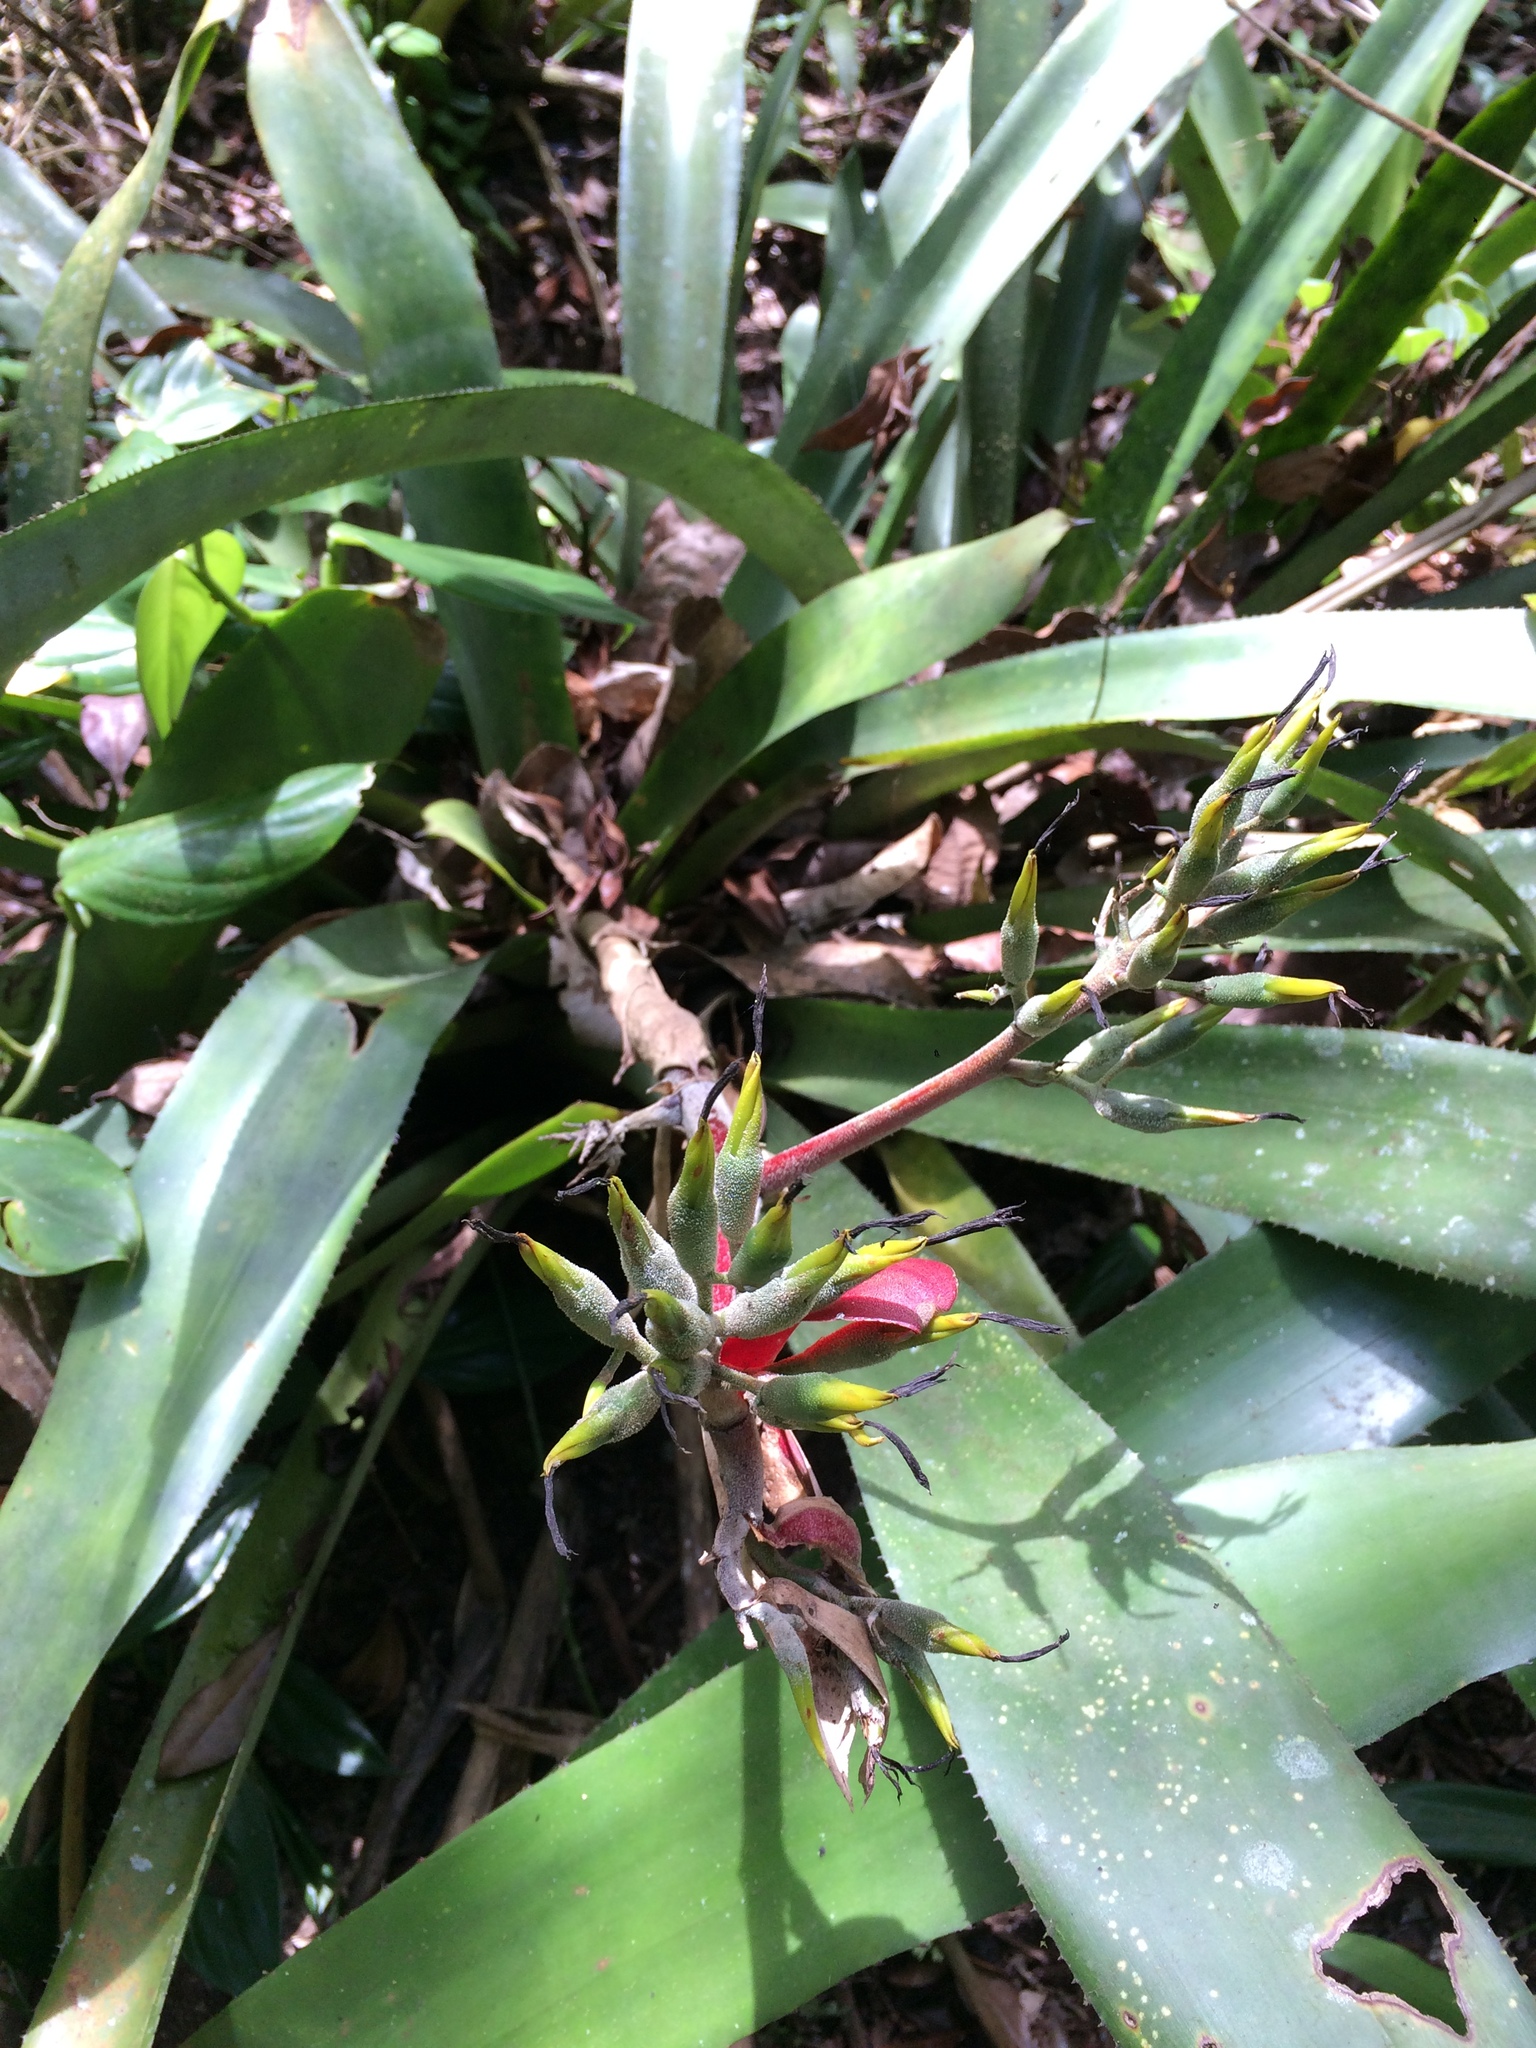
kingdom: Plantae
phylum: Tracheophyta
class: Liliopsida
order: Poales
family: Bromeliaceae
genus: Aechmea
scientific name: Aechmea costantinii
